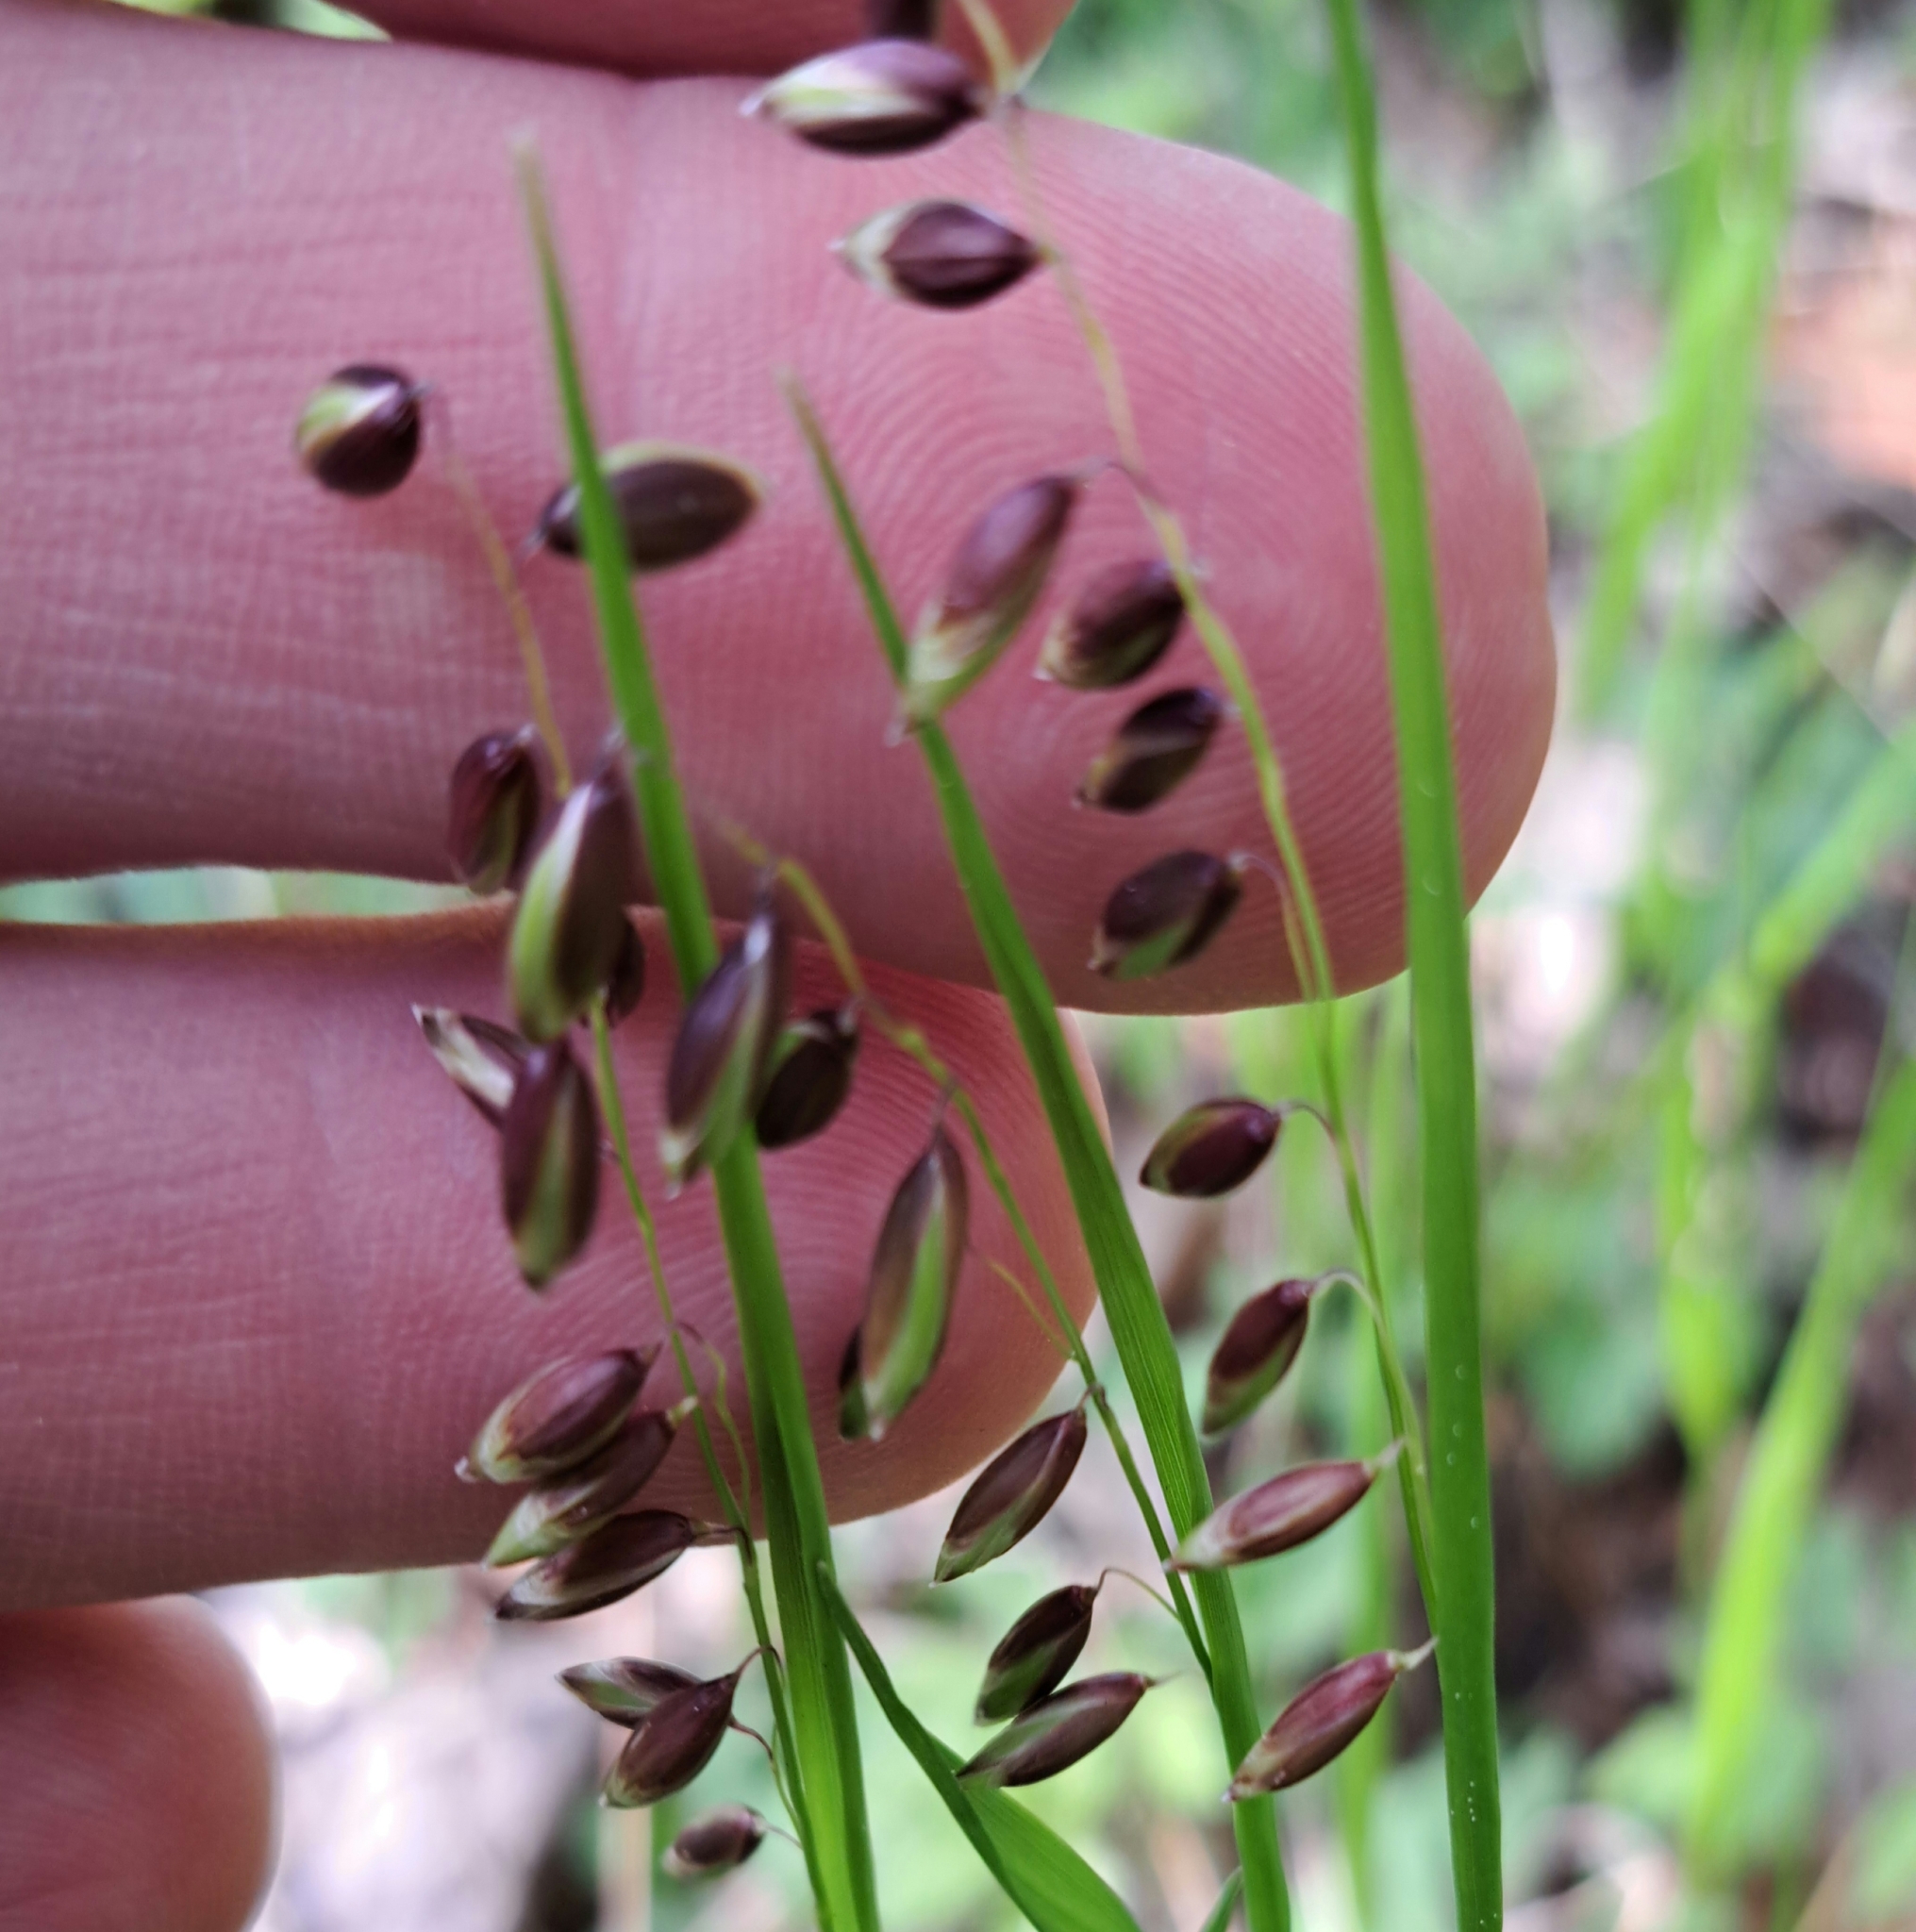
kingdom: Plantae
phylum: Tracheophyta
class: Liliopsida
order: Poales
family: Poaceae
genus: Melica
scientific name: Melica nutans
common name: Mountain melick
